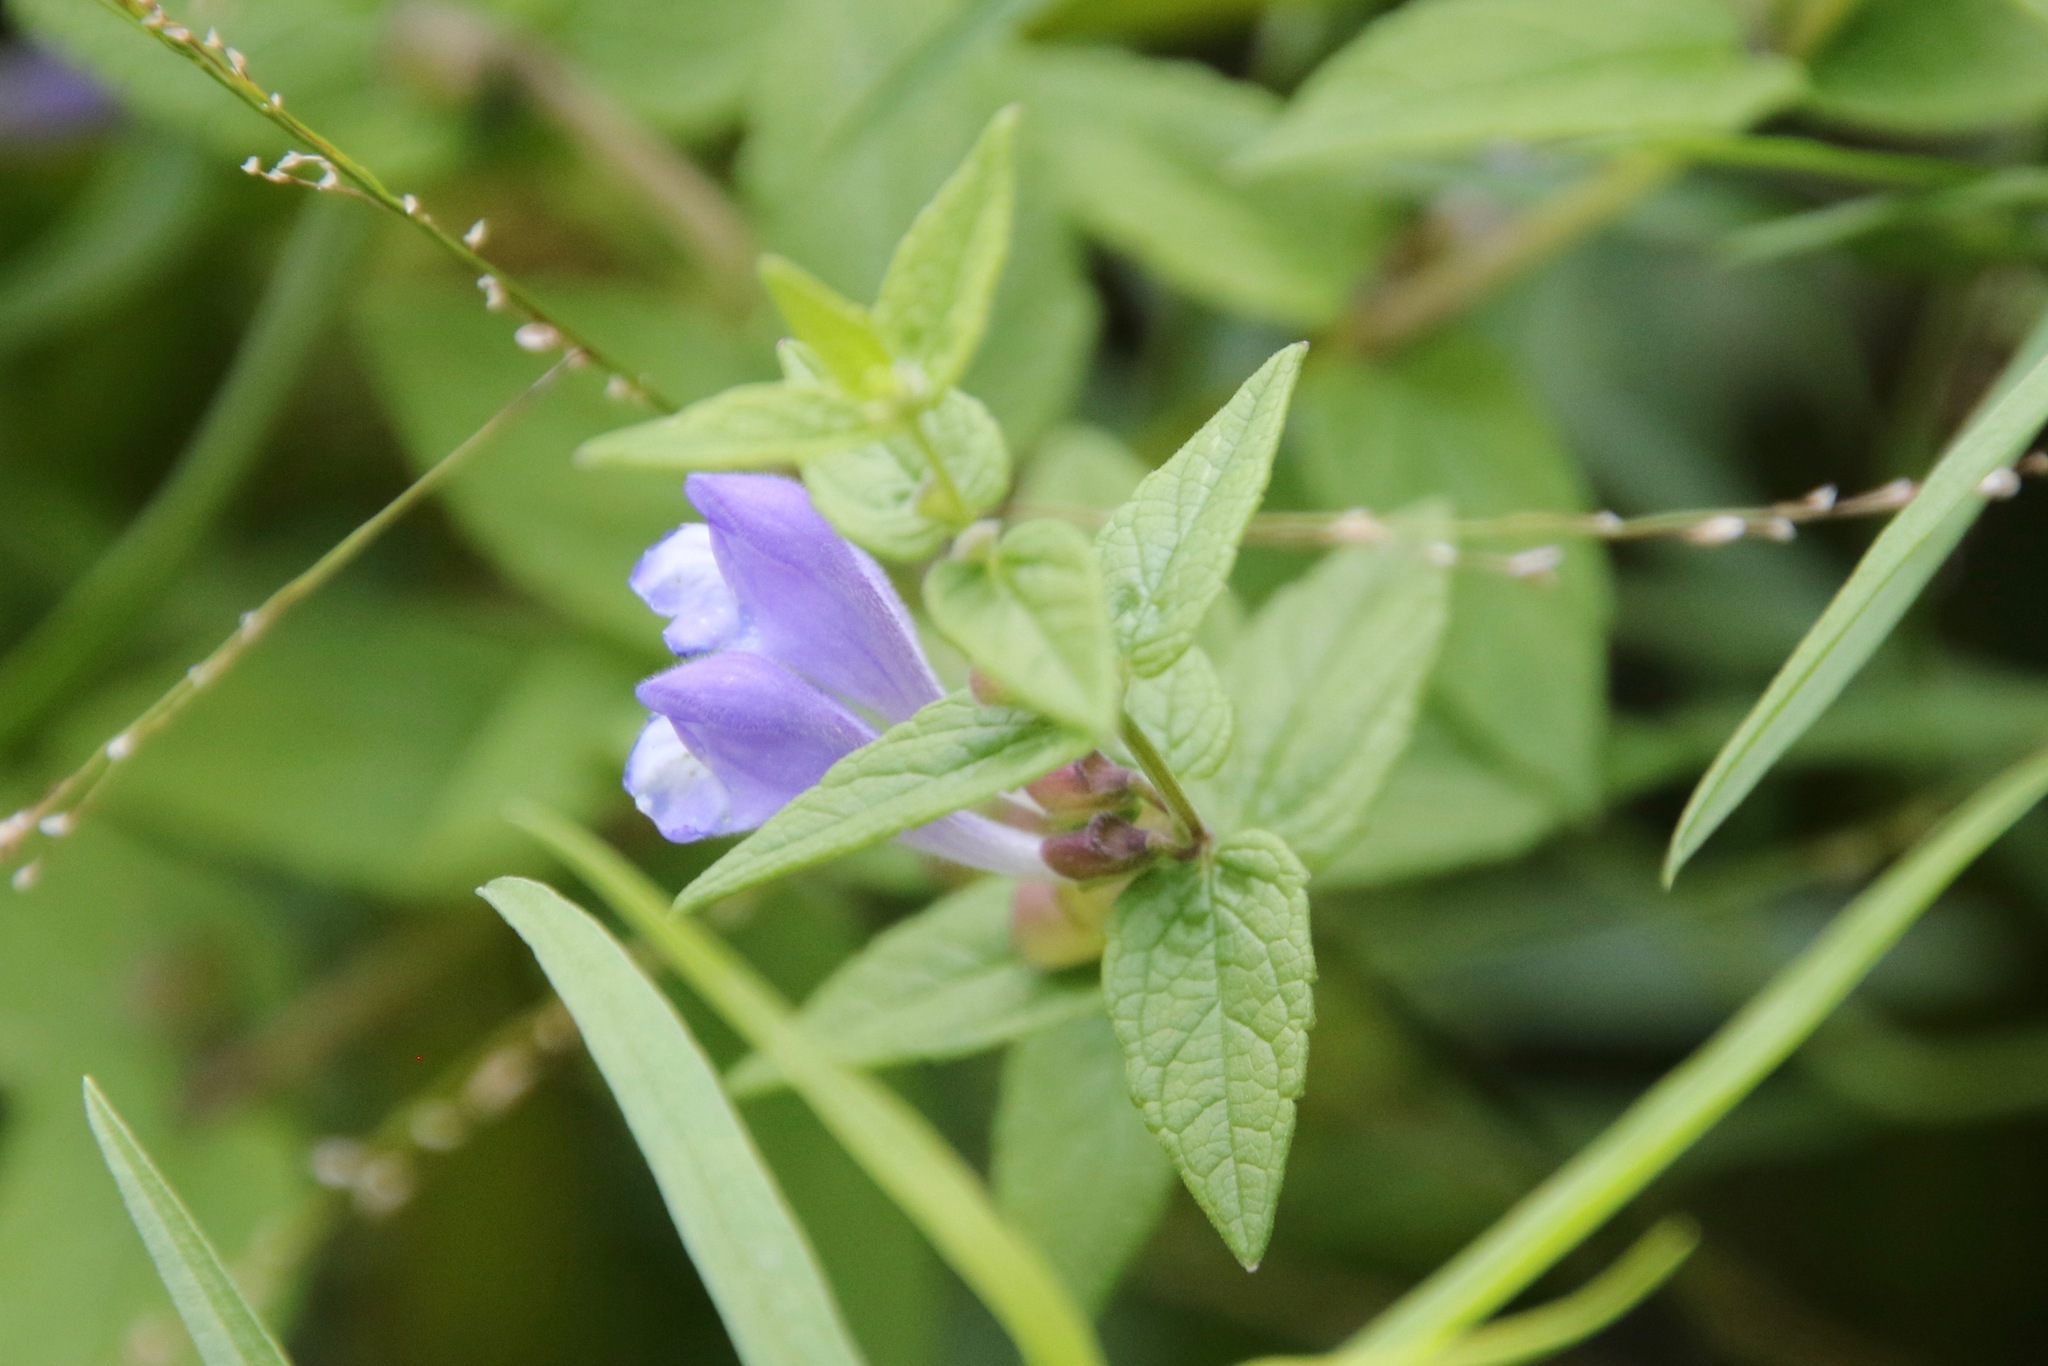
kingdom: Plantae
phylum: Tracheophyta
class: Magnoliopsida
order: Lamiales
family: Lamiaceae
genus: Scutellaria
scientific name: Scutellaria galericulata
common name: Skullcap
